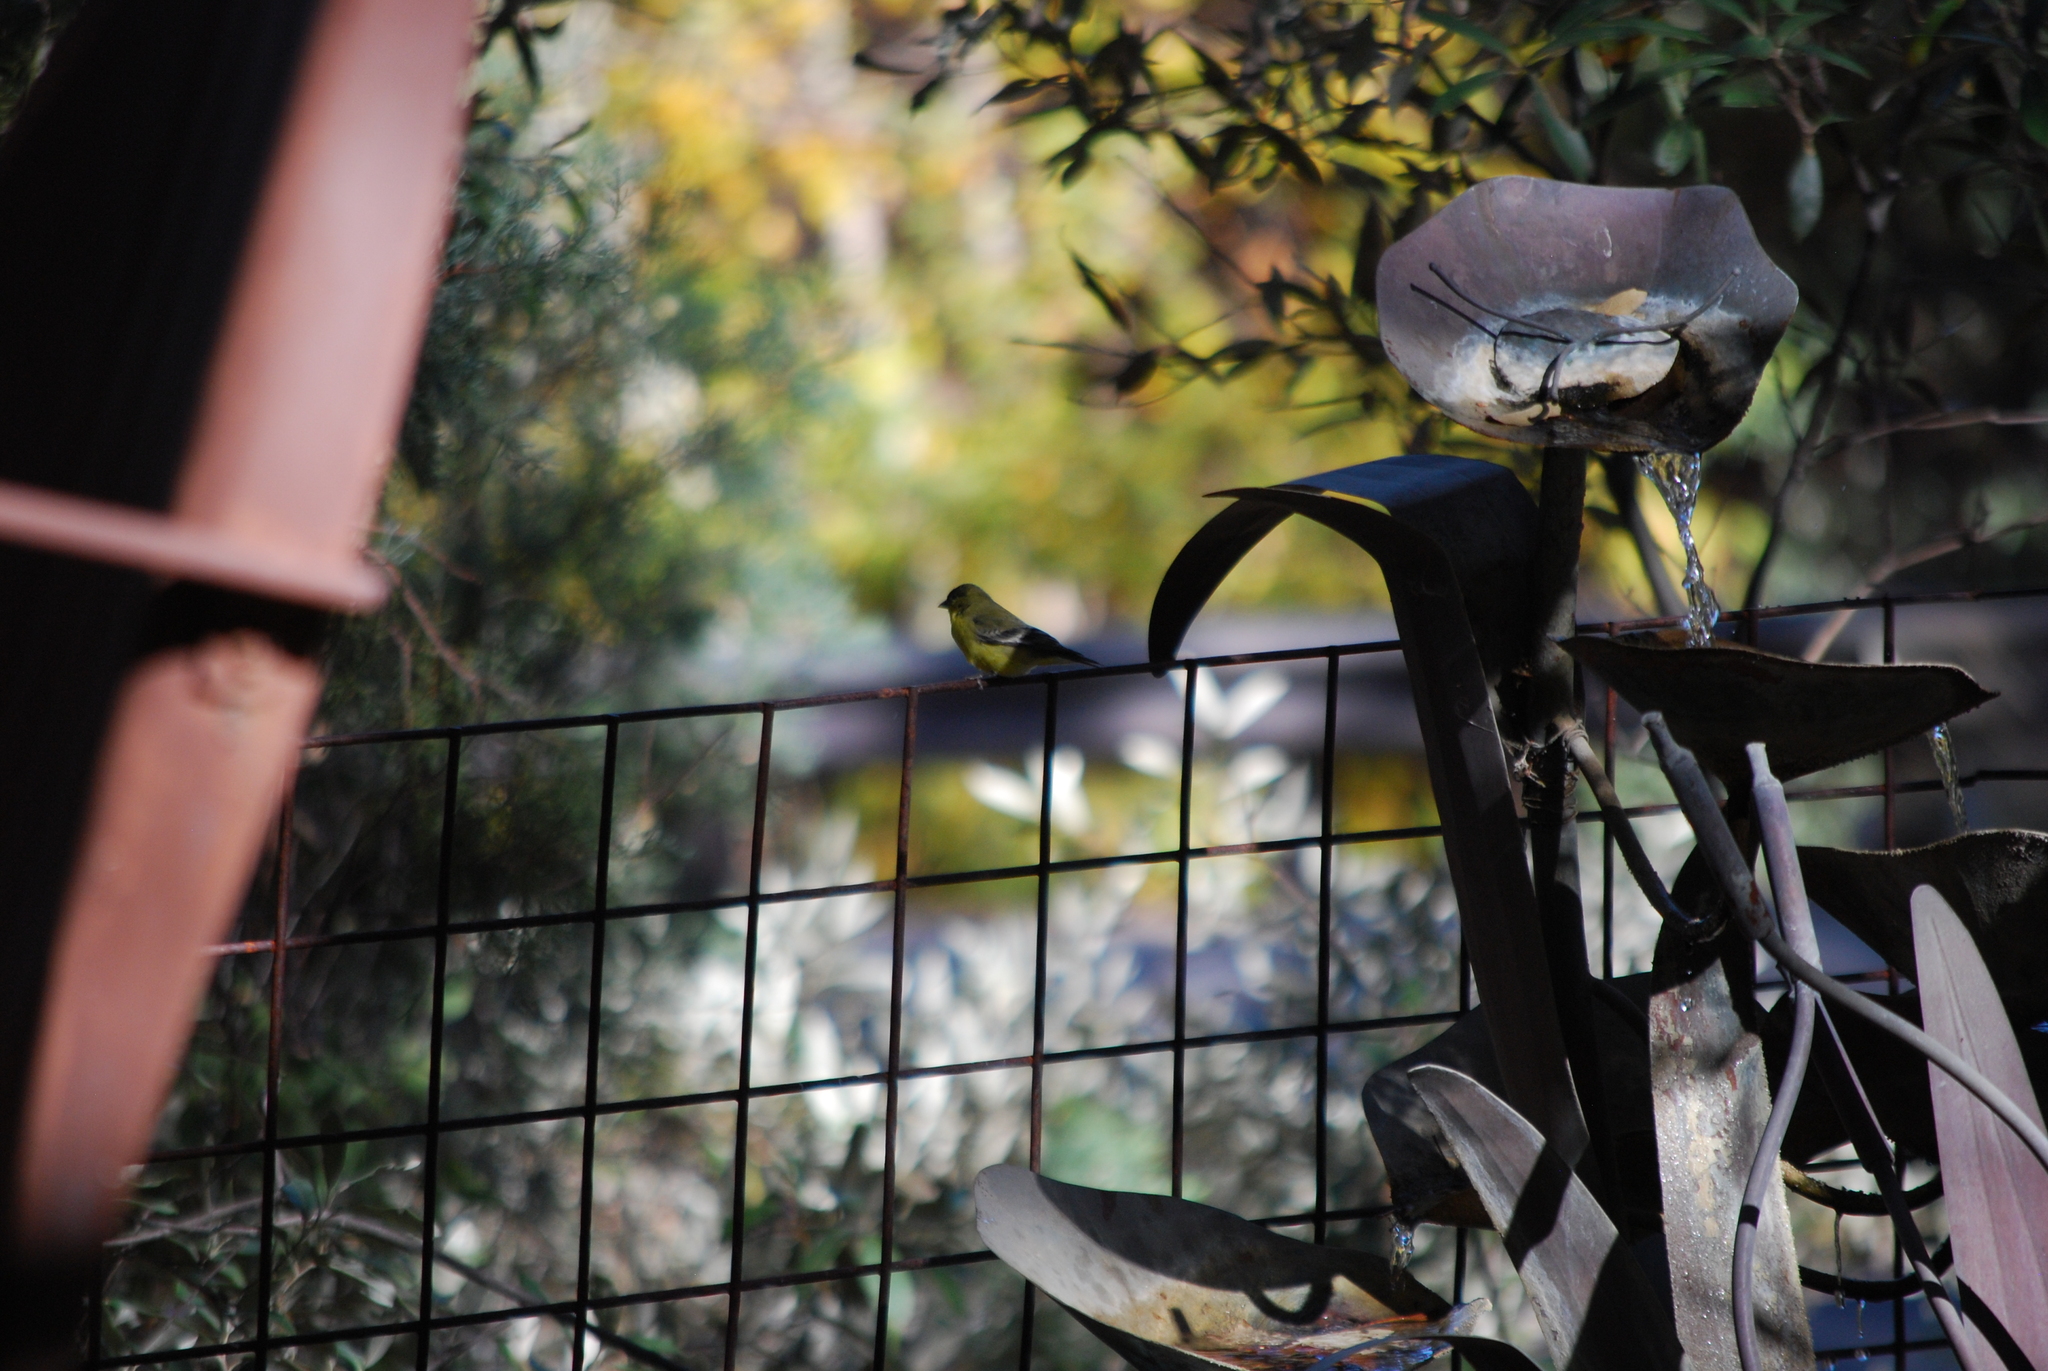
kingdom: Animalia
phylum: Chordata
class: Aves
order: Passeriformes
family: Fringillidae
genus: Spinus
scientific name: Spinus psaltria
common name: Lesser goldfinch
